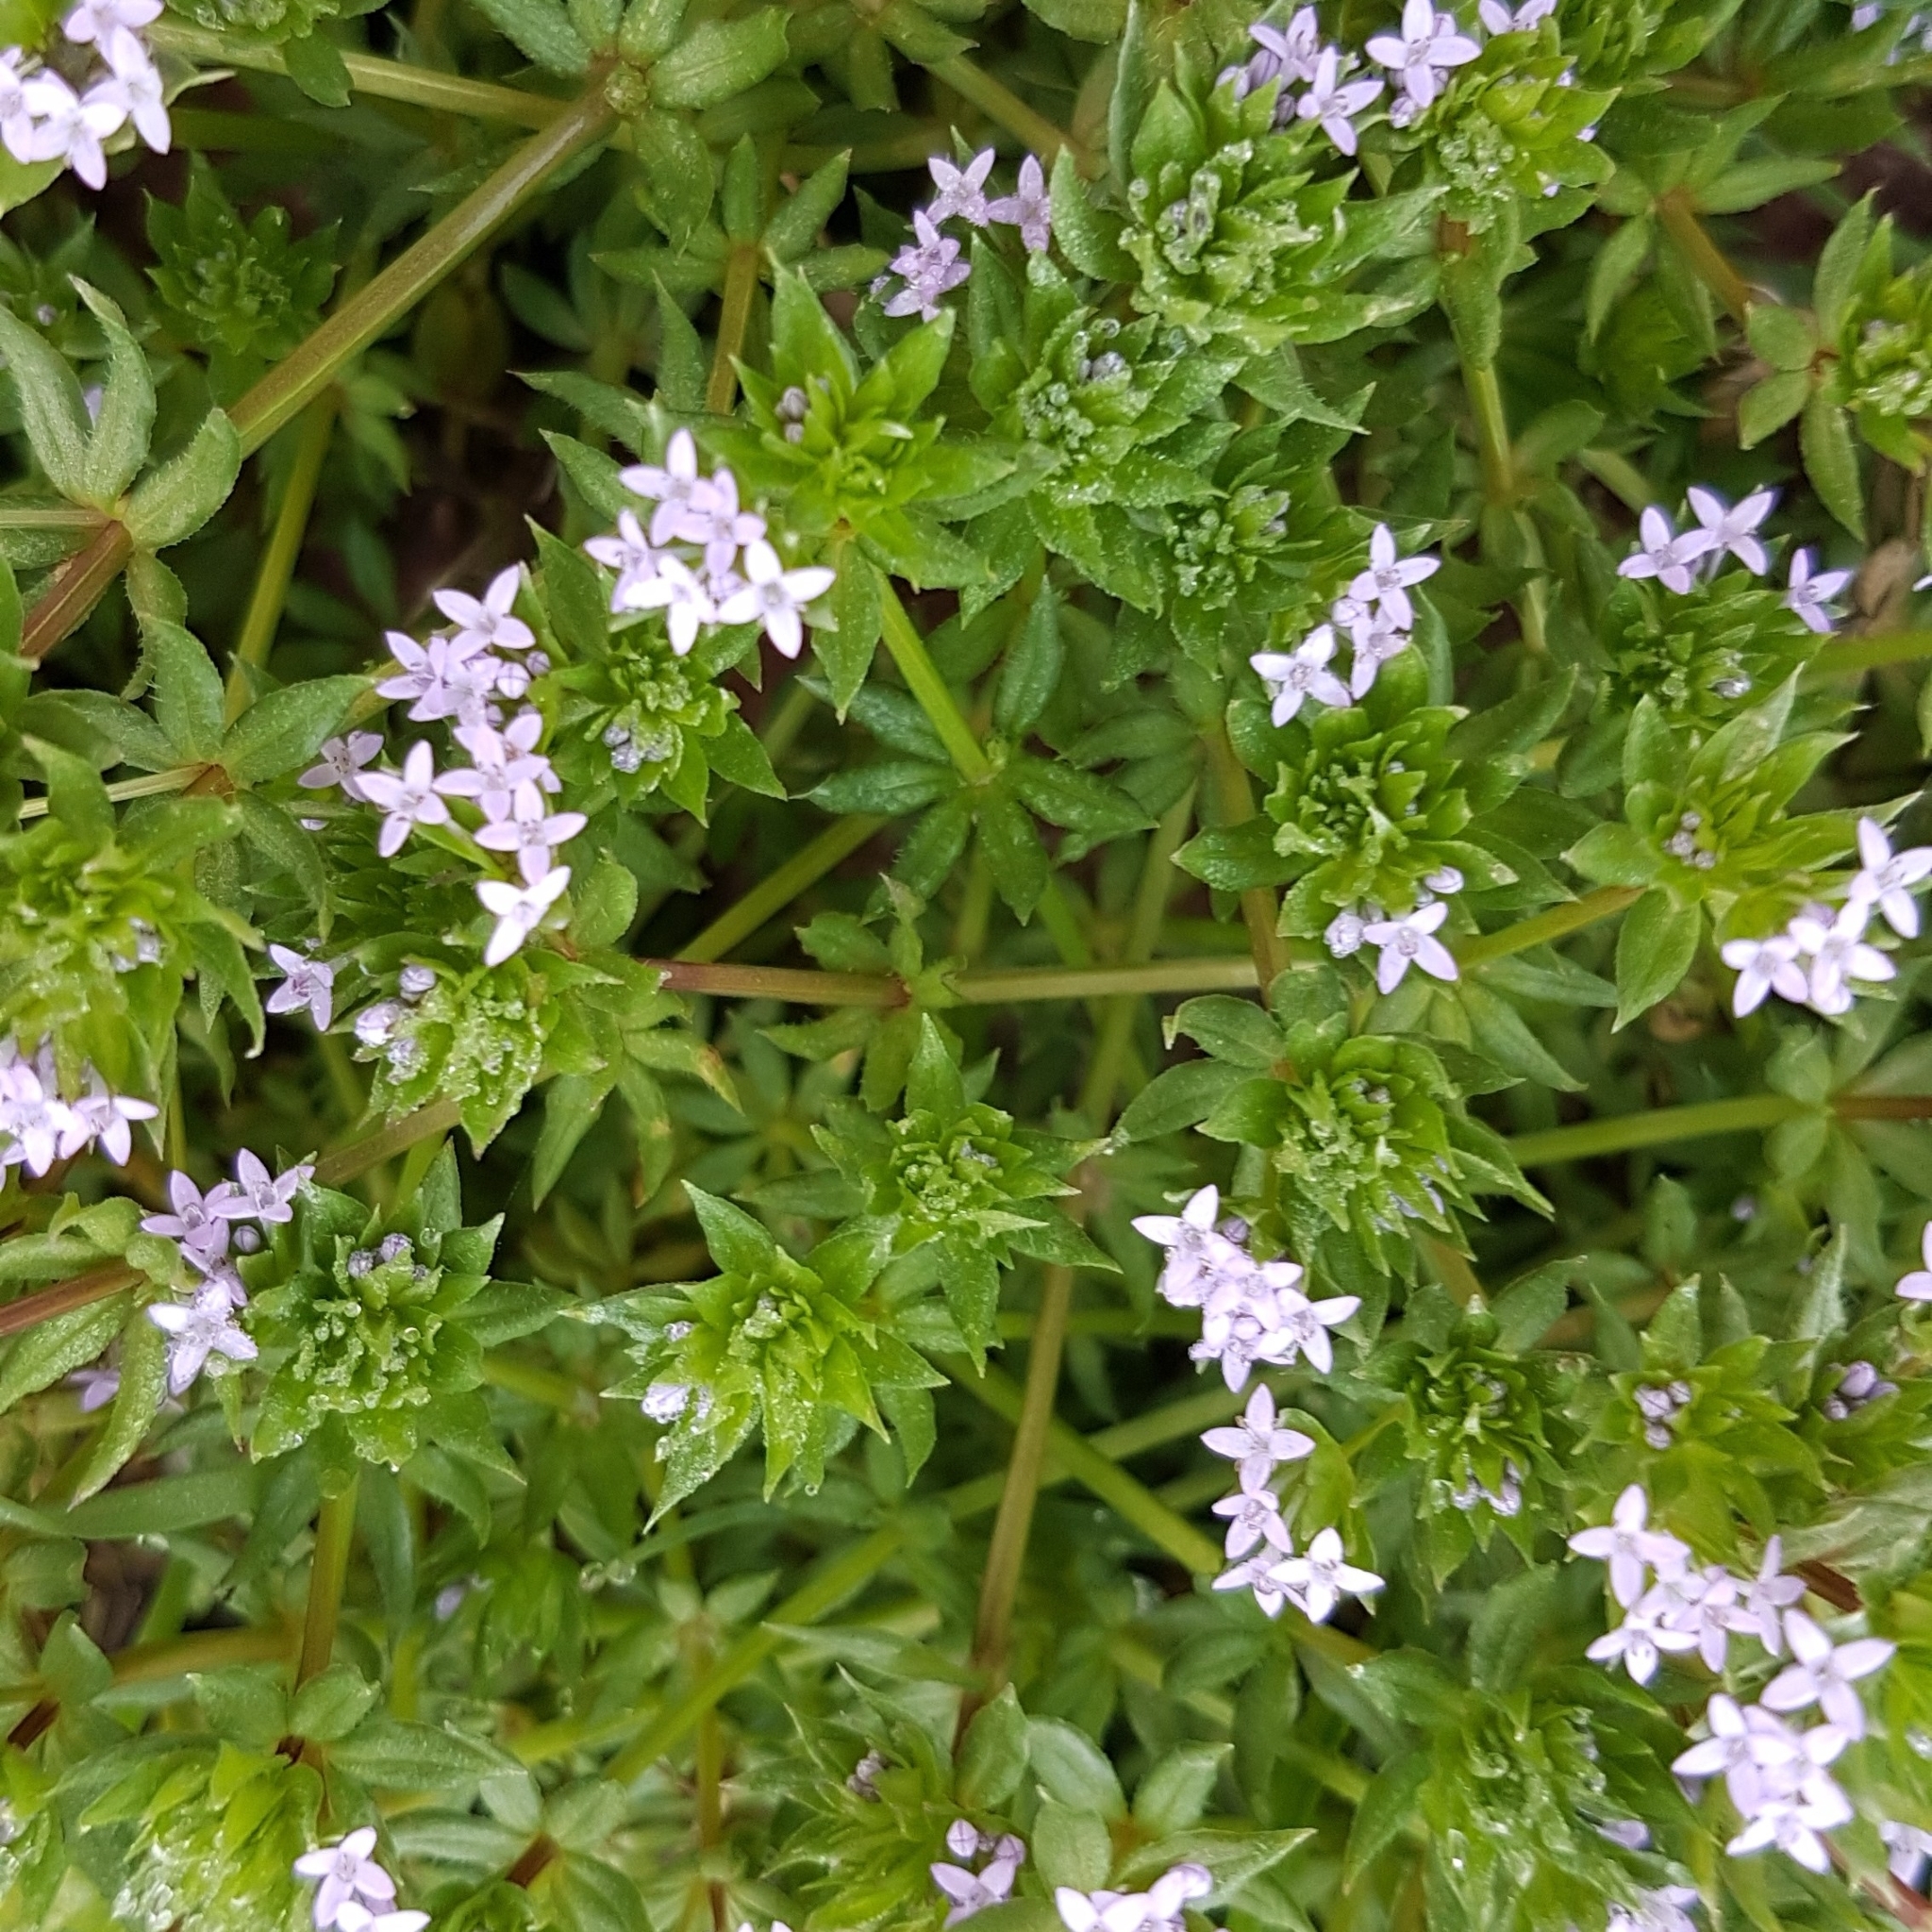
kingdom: Plantae
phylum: Tracheophyta
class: Magnoliopsida
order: Gentianales
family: Rubiaceae
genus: Sherardia
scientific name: Sherardia arvensis
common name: Field madder
